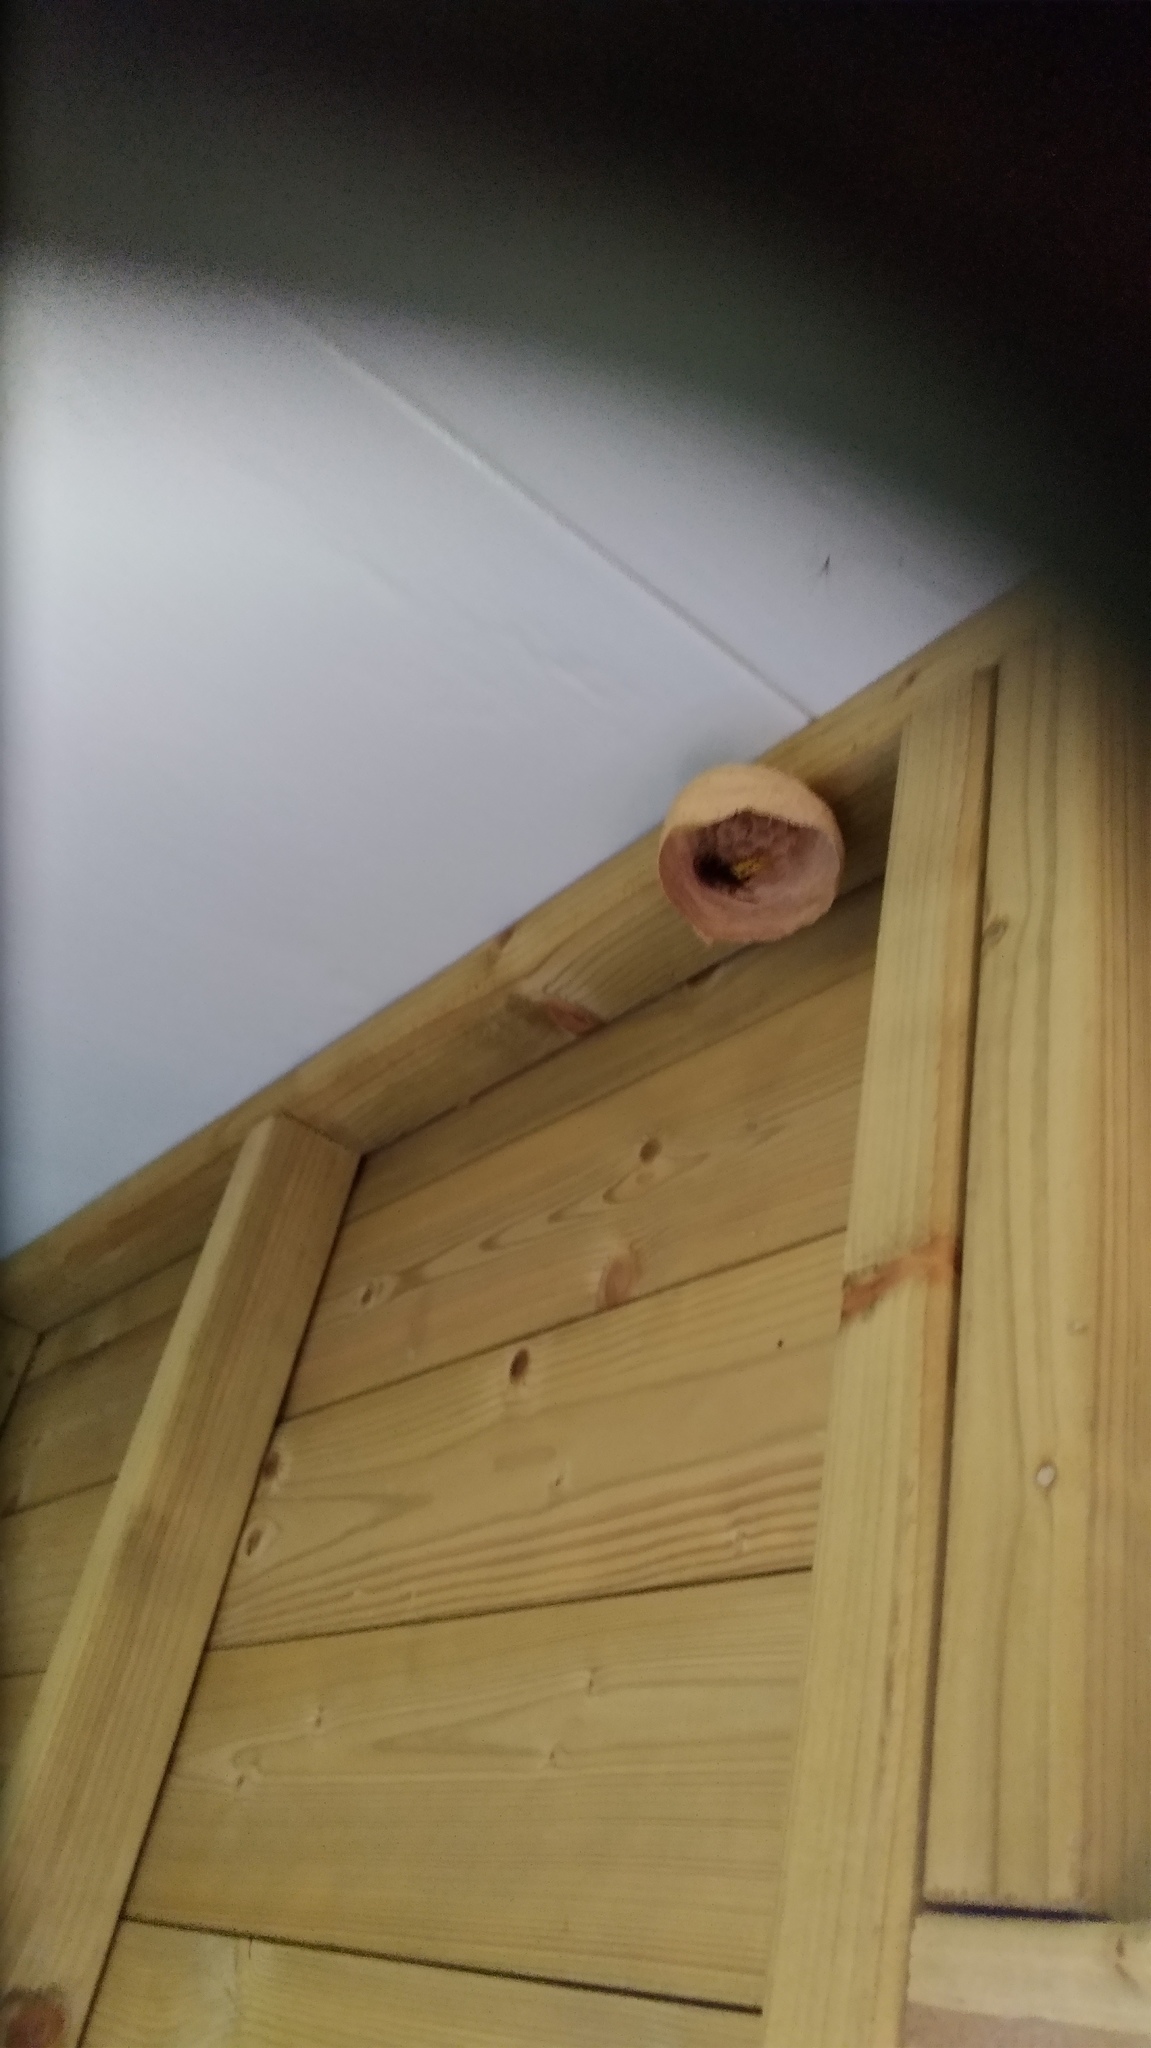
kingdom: Animalia
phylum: Arthropoda
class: Insecta
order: Hymenoptera
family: Vespidae
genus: Vespa
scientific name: Vespa crabro
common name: Hornet
